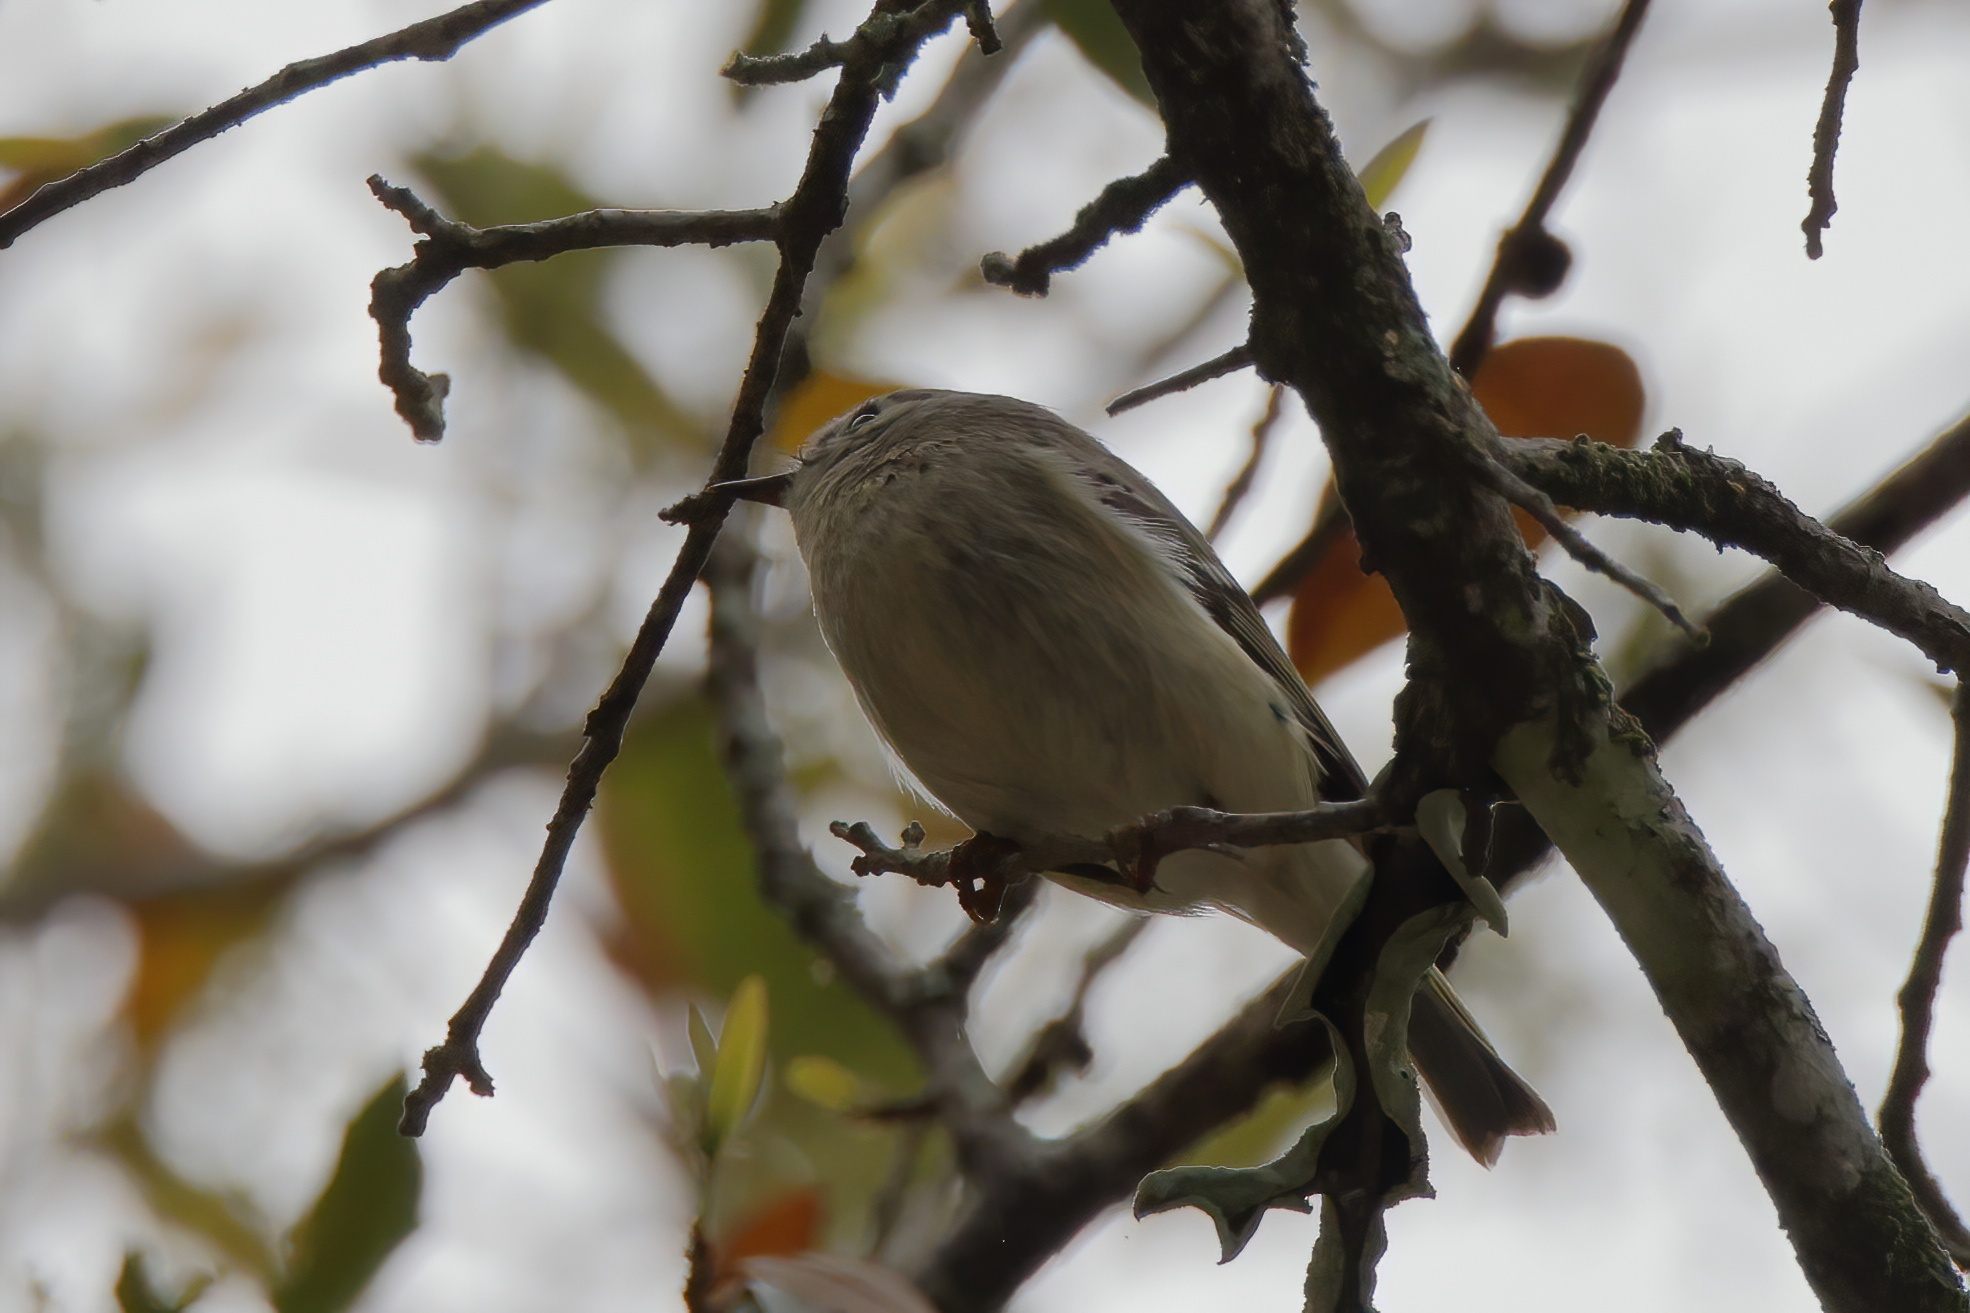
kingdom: Animalia
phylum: Chordata
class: Aves
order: Passeriformes
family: Regulidae
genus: Regulus
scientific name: Regulus calendula
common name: Ruby-crowned kinglet
